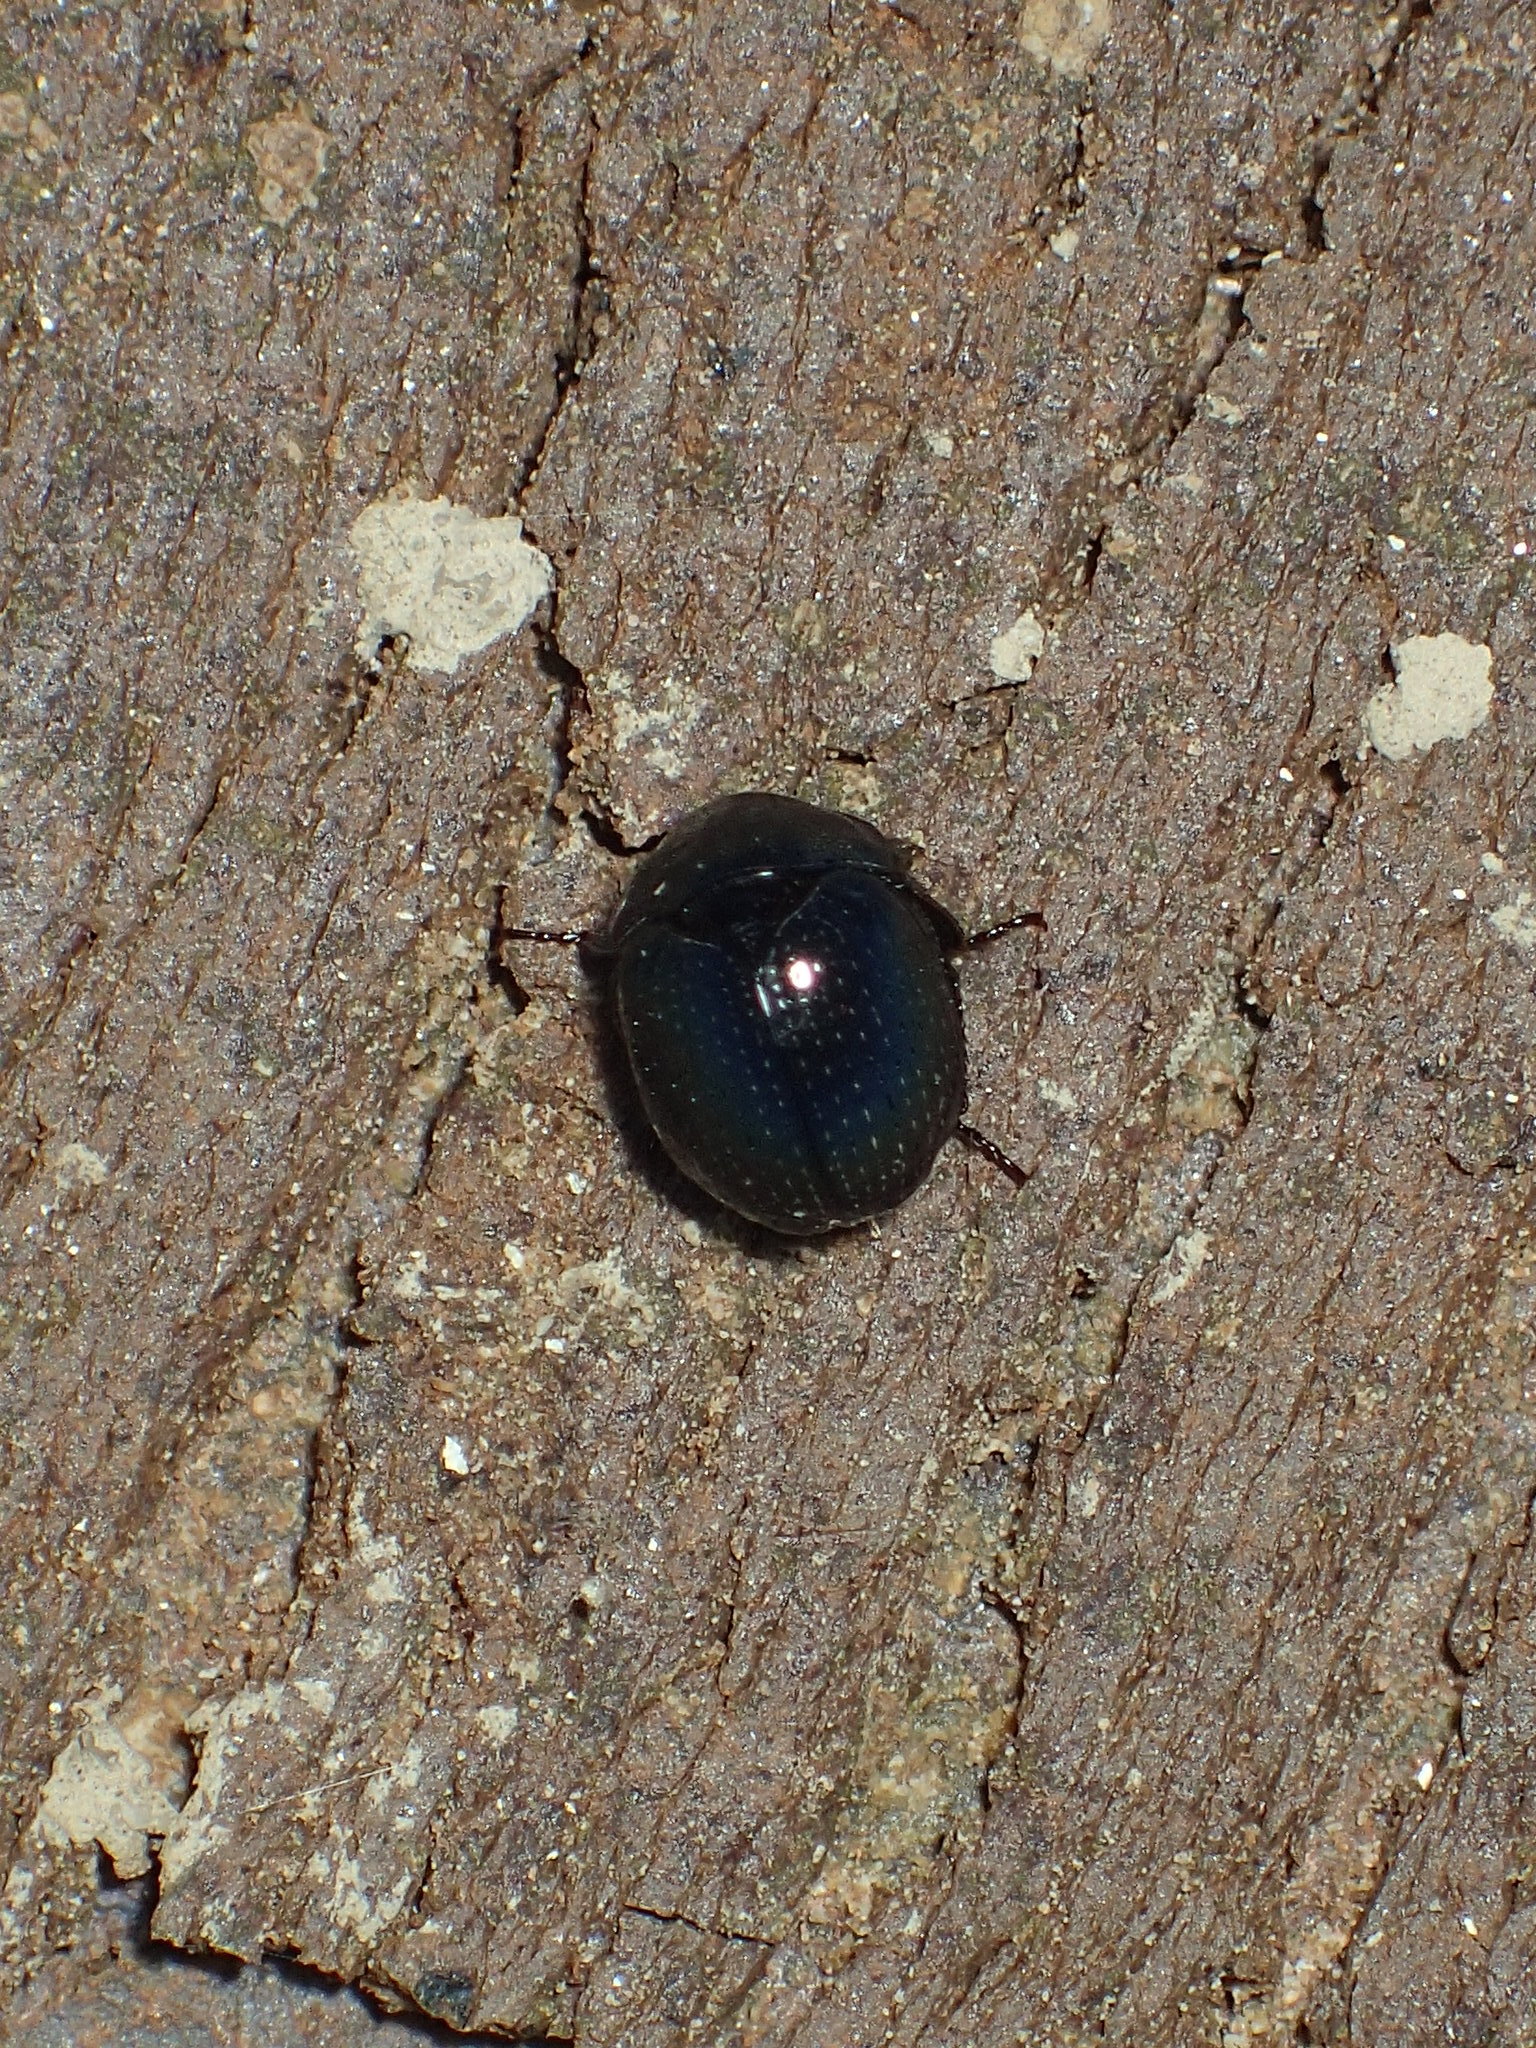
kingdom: Animalia
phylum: Arthropoda
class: Insecta
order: Coleoptera
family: Hybosoridae
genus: Germarostes
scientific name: Germarostes globosus
